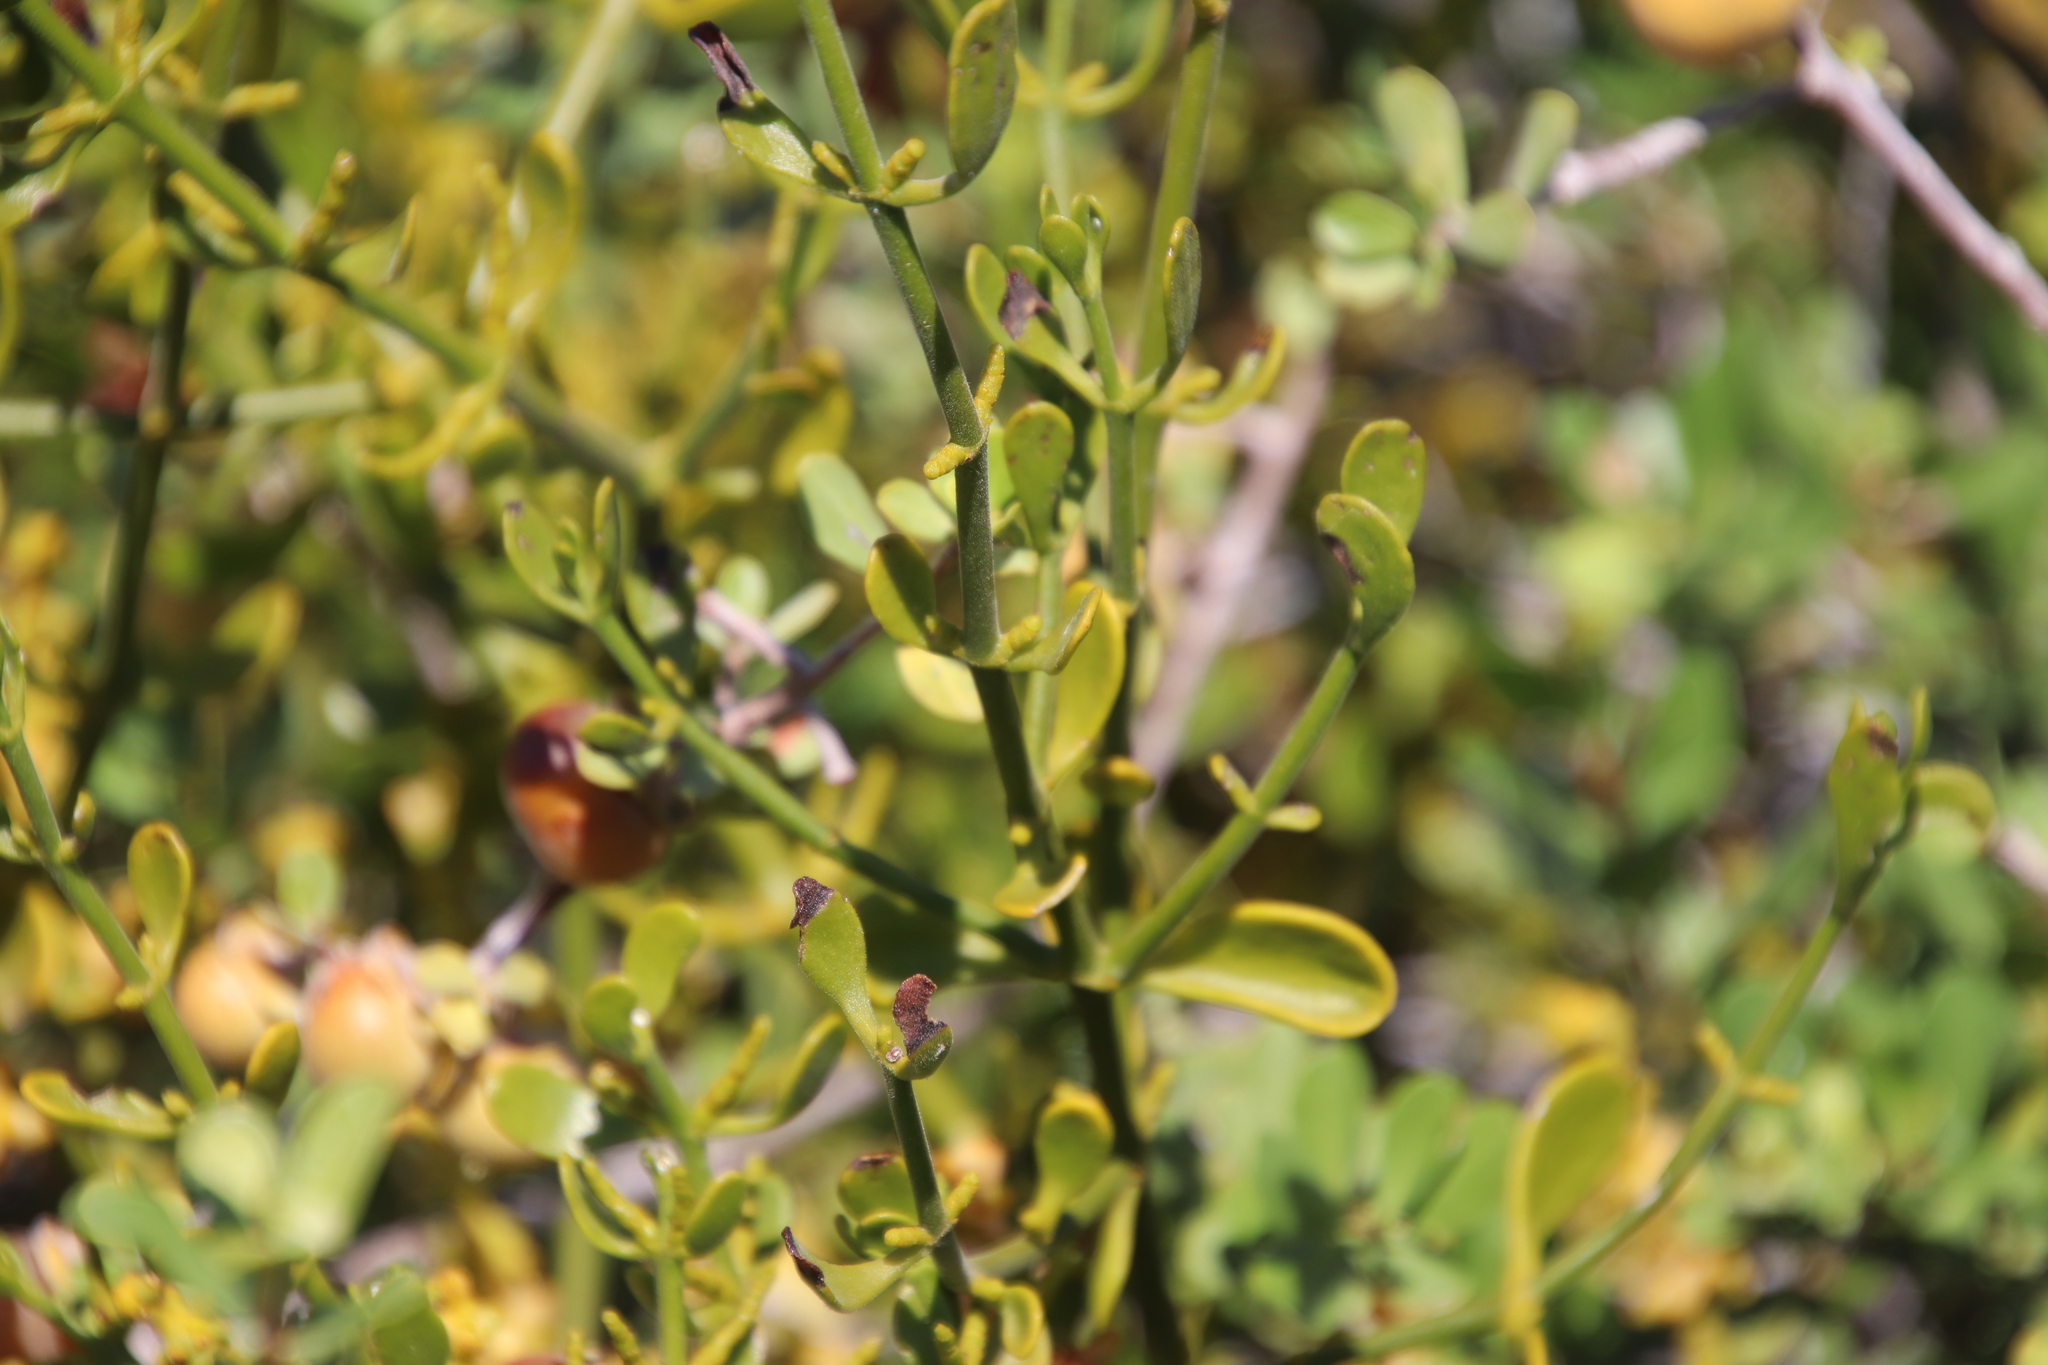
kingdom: Plantae
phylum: Tracheophyta
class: Magnoliopsida
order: Santalales
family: Viscaceae
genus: Phoradendron
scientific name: Phoradendron brachystachyum
